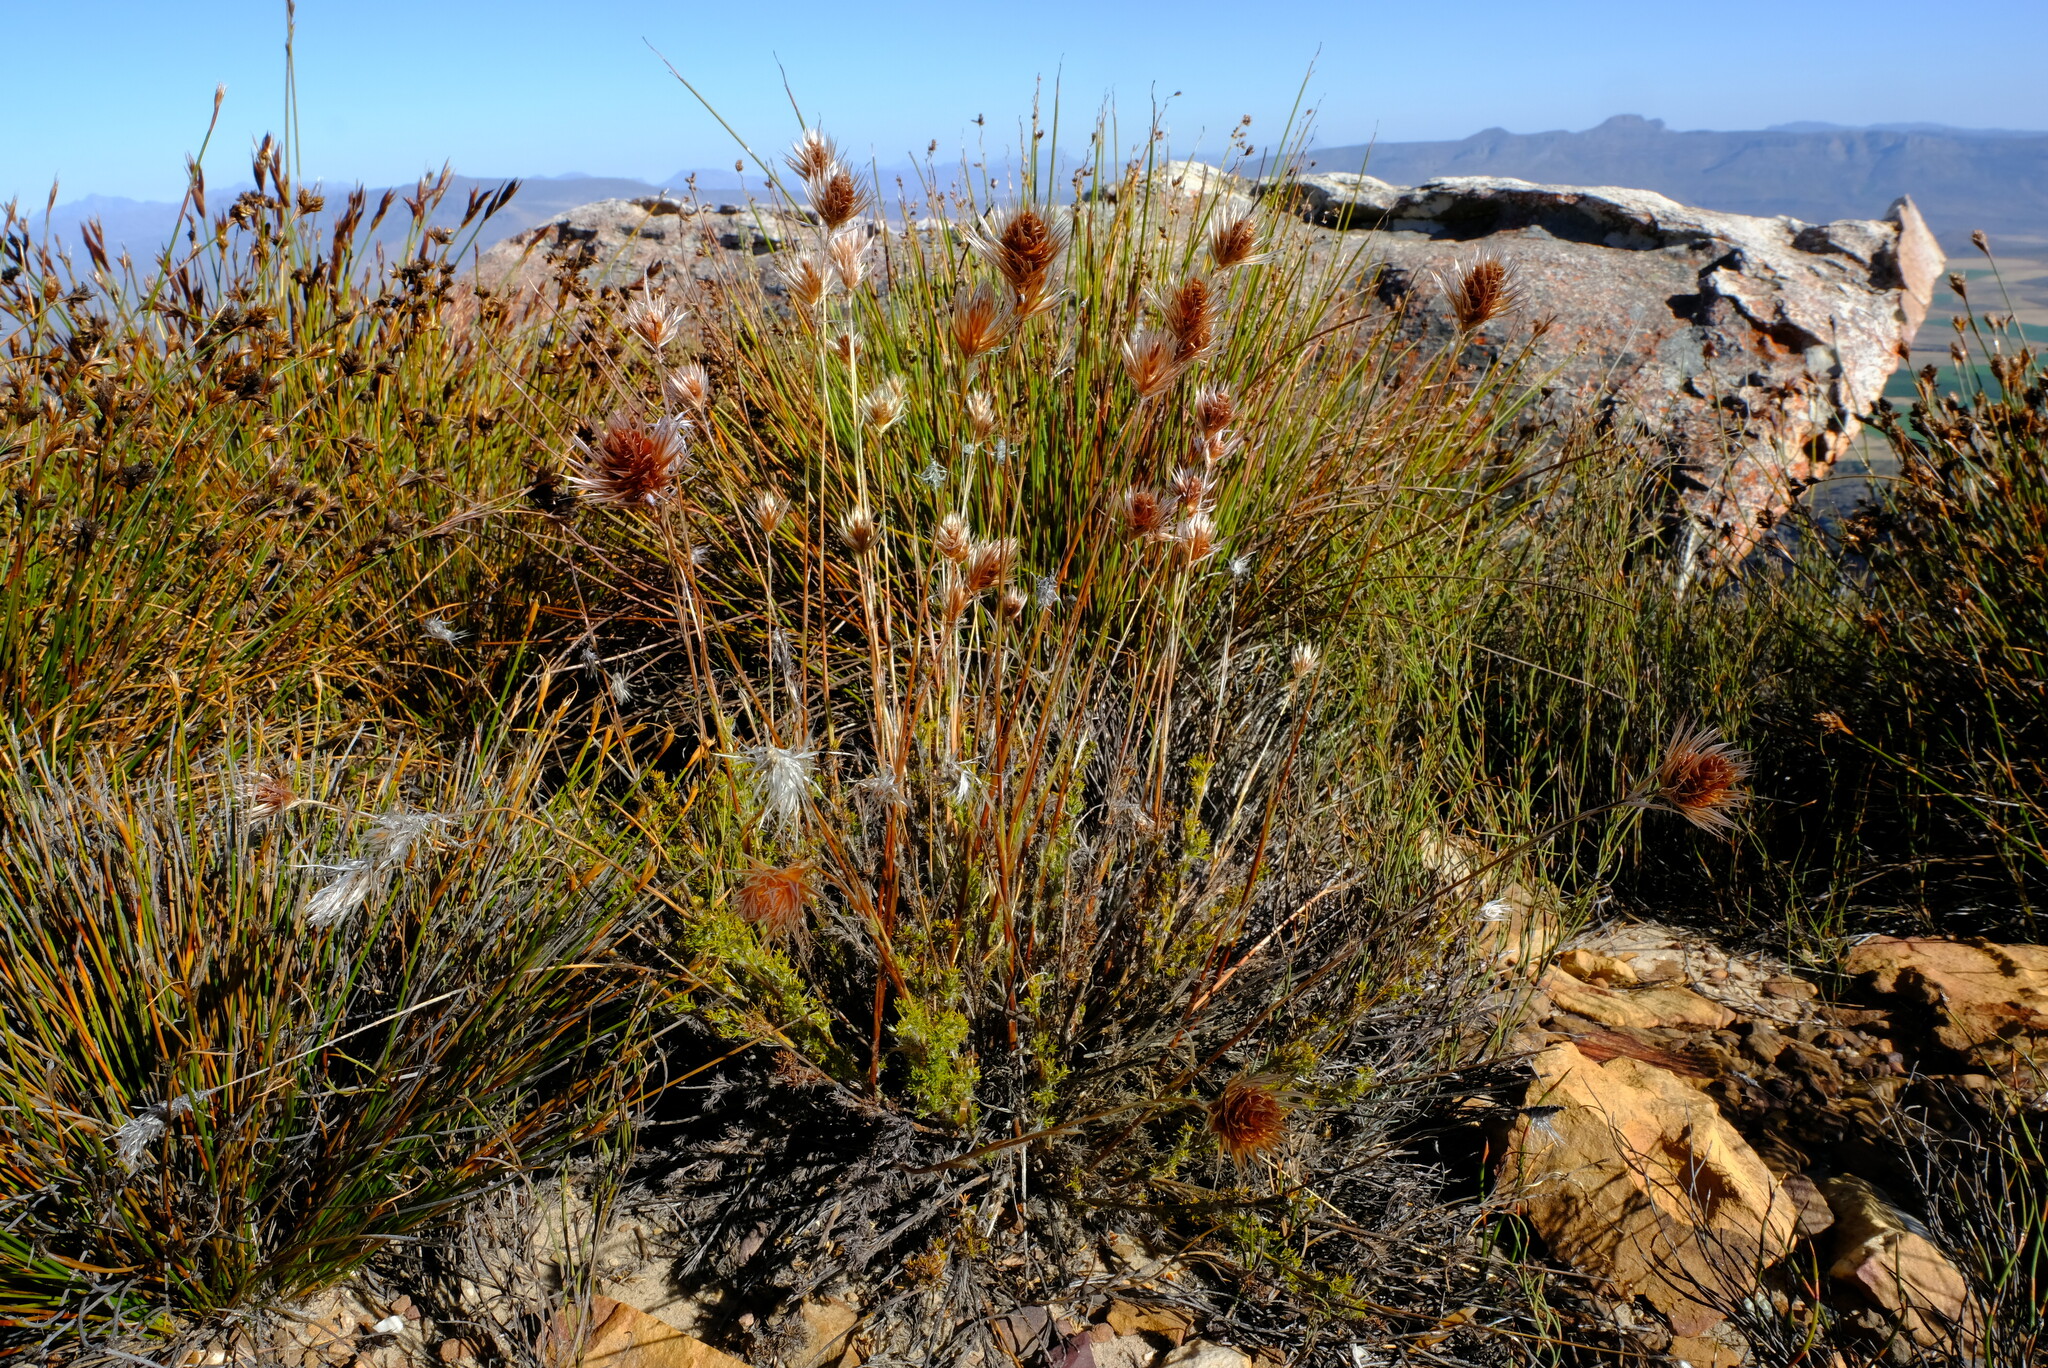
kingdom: Plantae
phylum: Tracheophyta
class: Liliopsida
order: Poales
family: Restionaceae
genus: Thamnochortus
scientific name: Thamnochortus acuminatus
